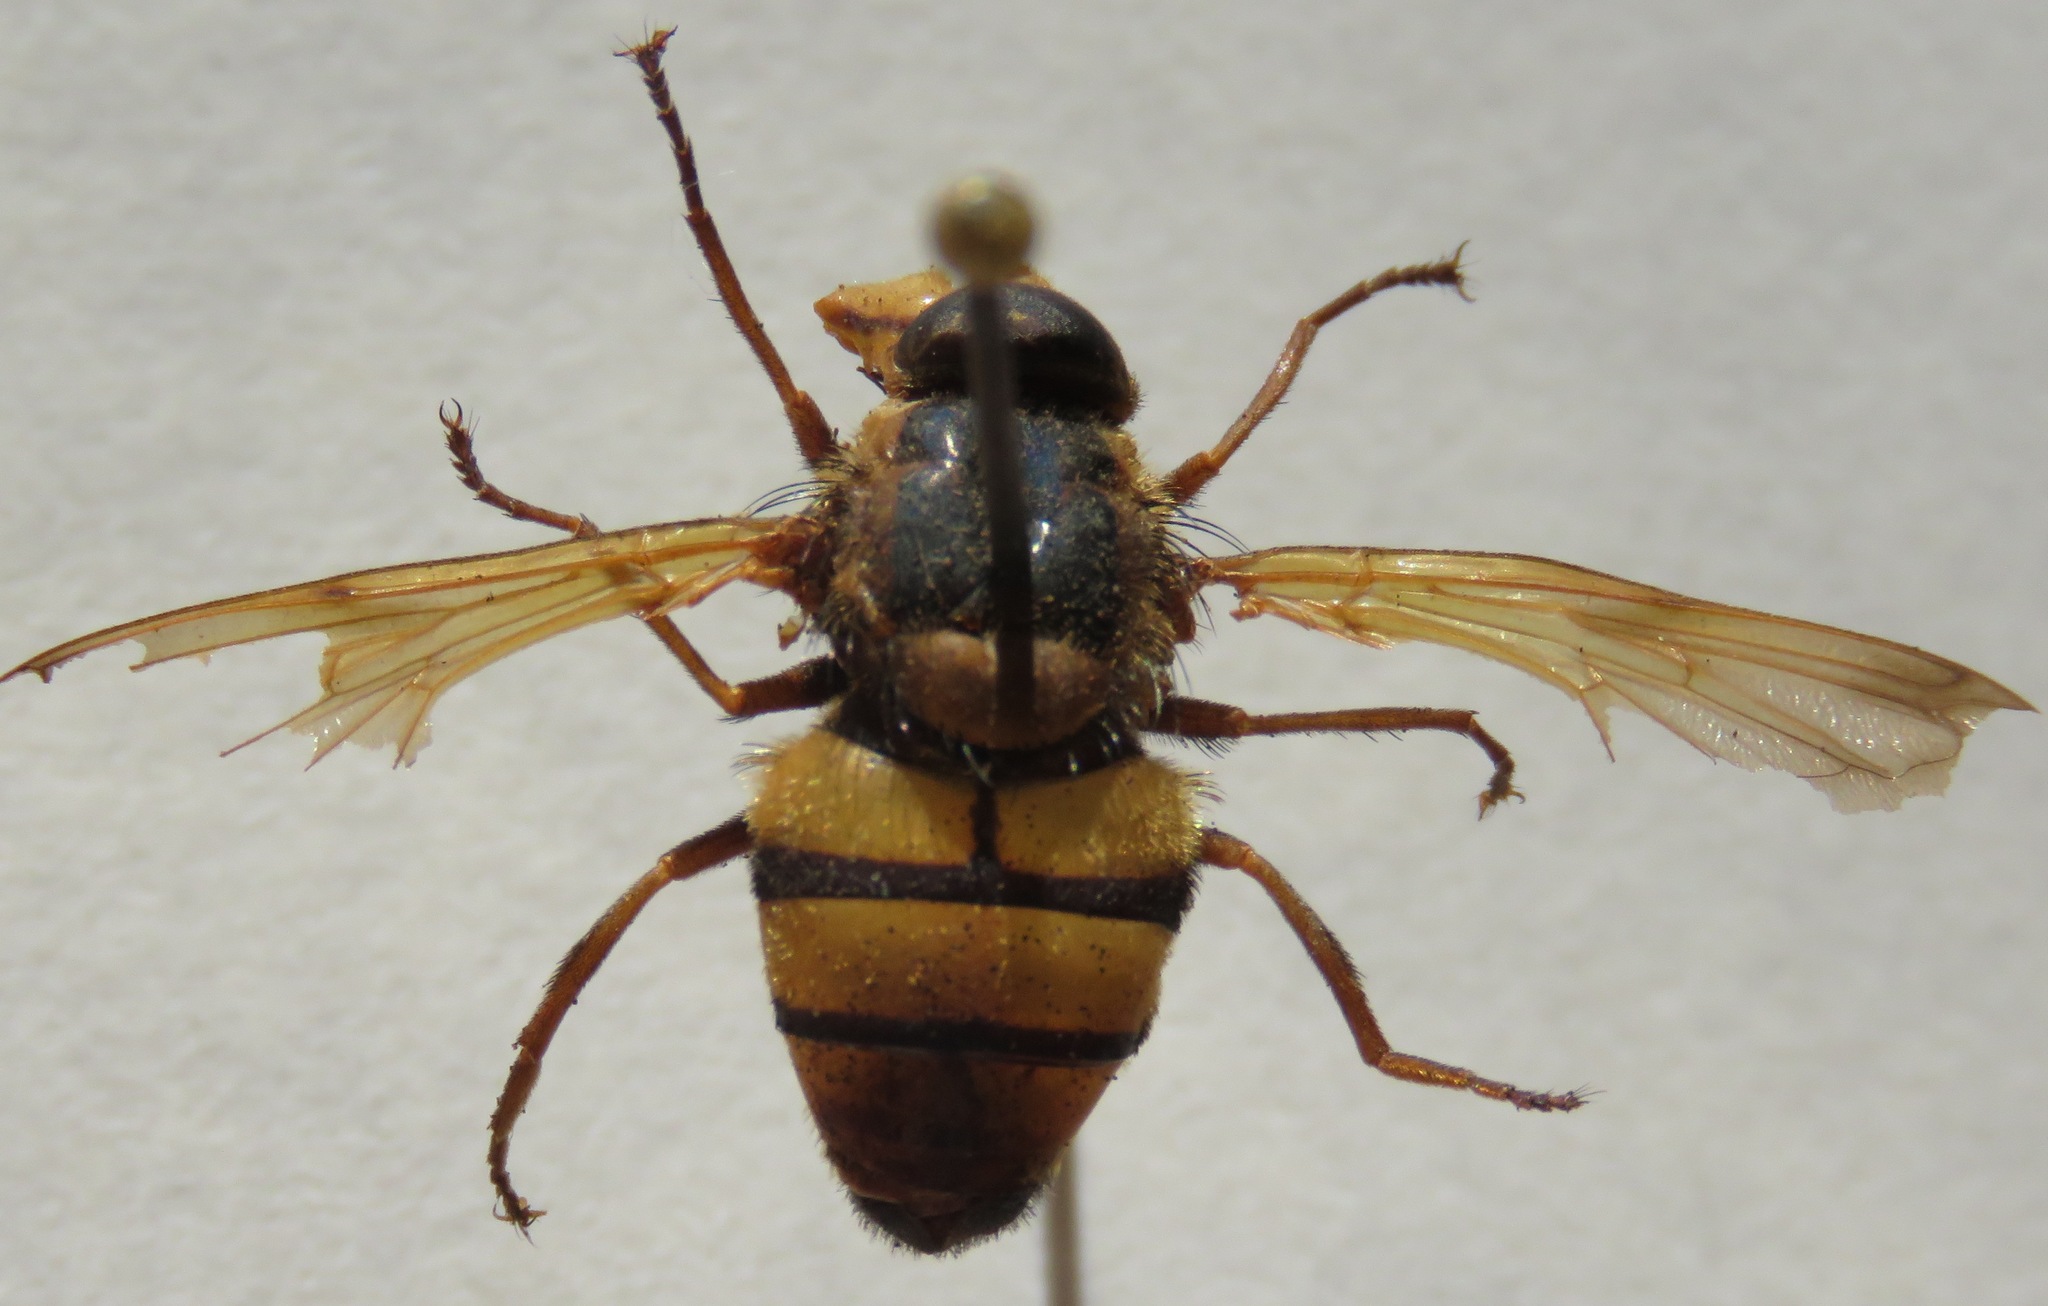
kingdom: Animalia
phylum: Arthropoda
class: Insecta
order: Diptera
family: Syrphidae
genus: Volucella
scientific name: Volucella inanis
